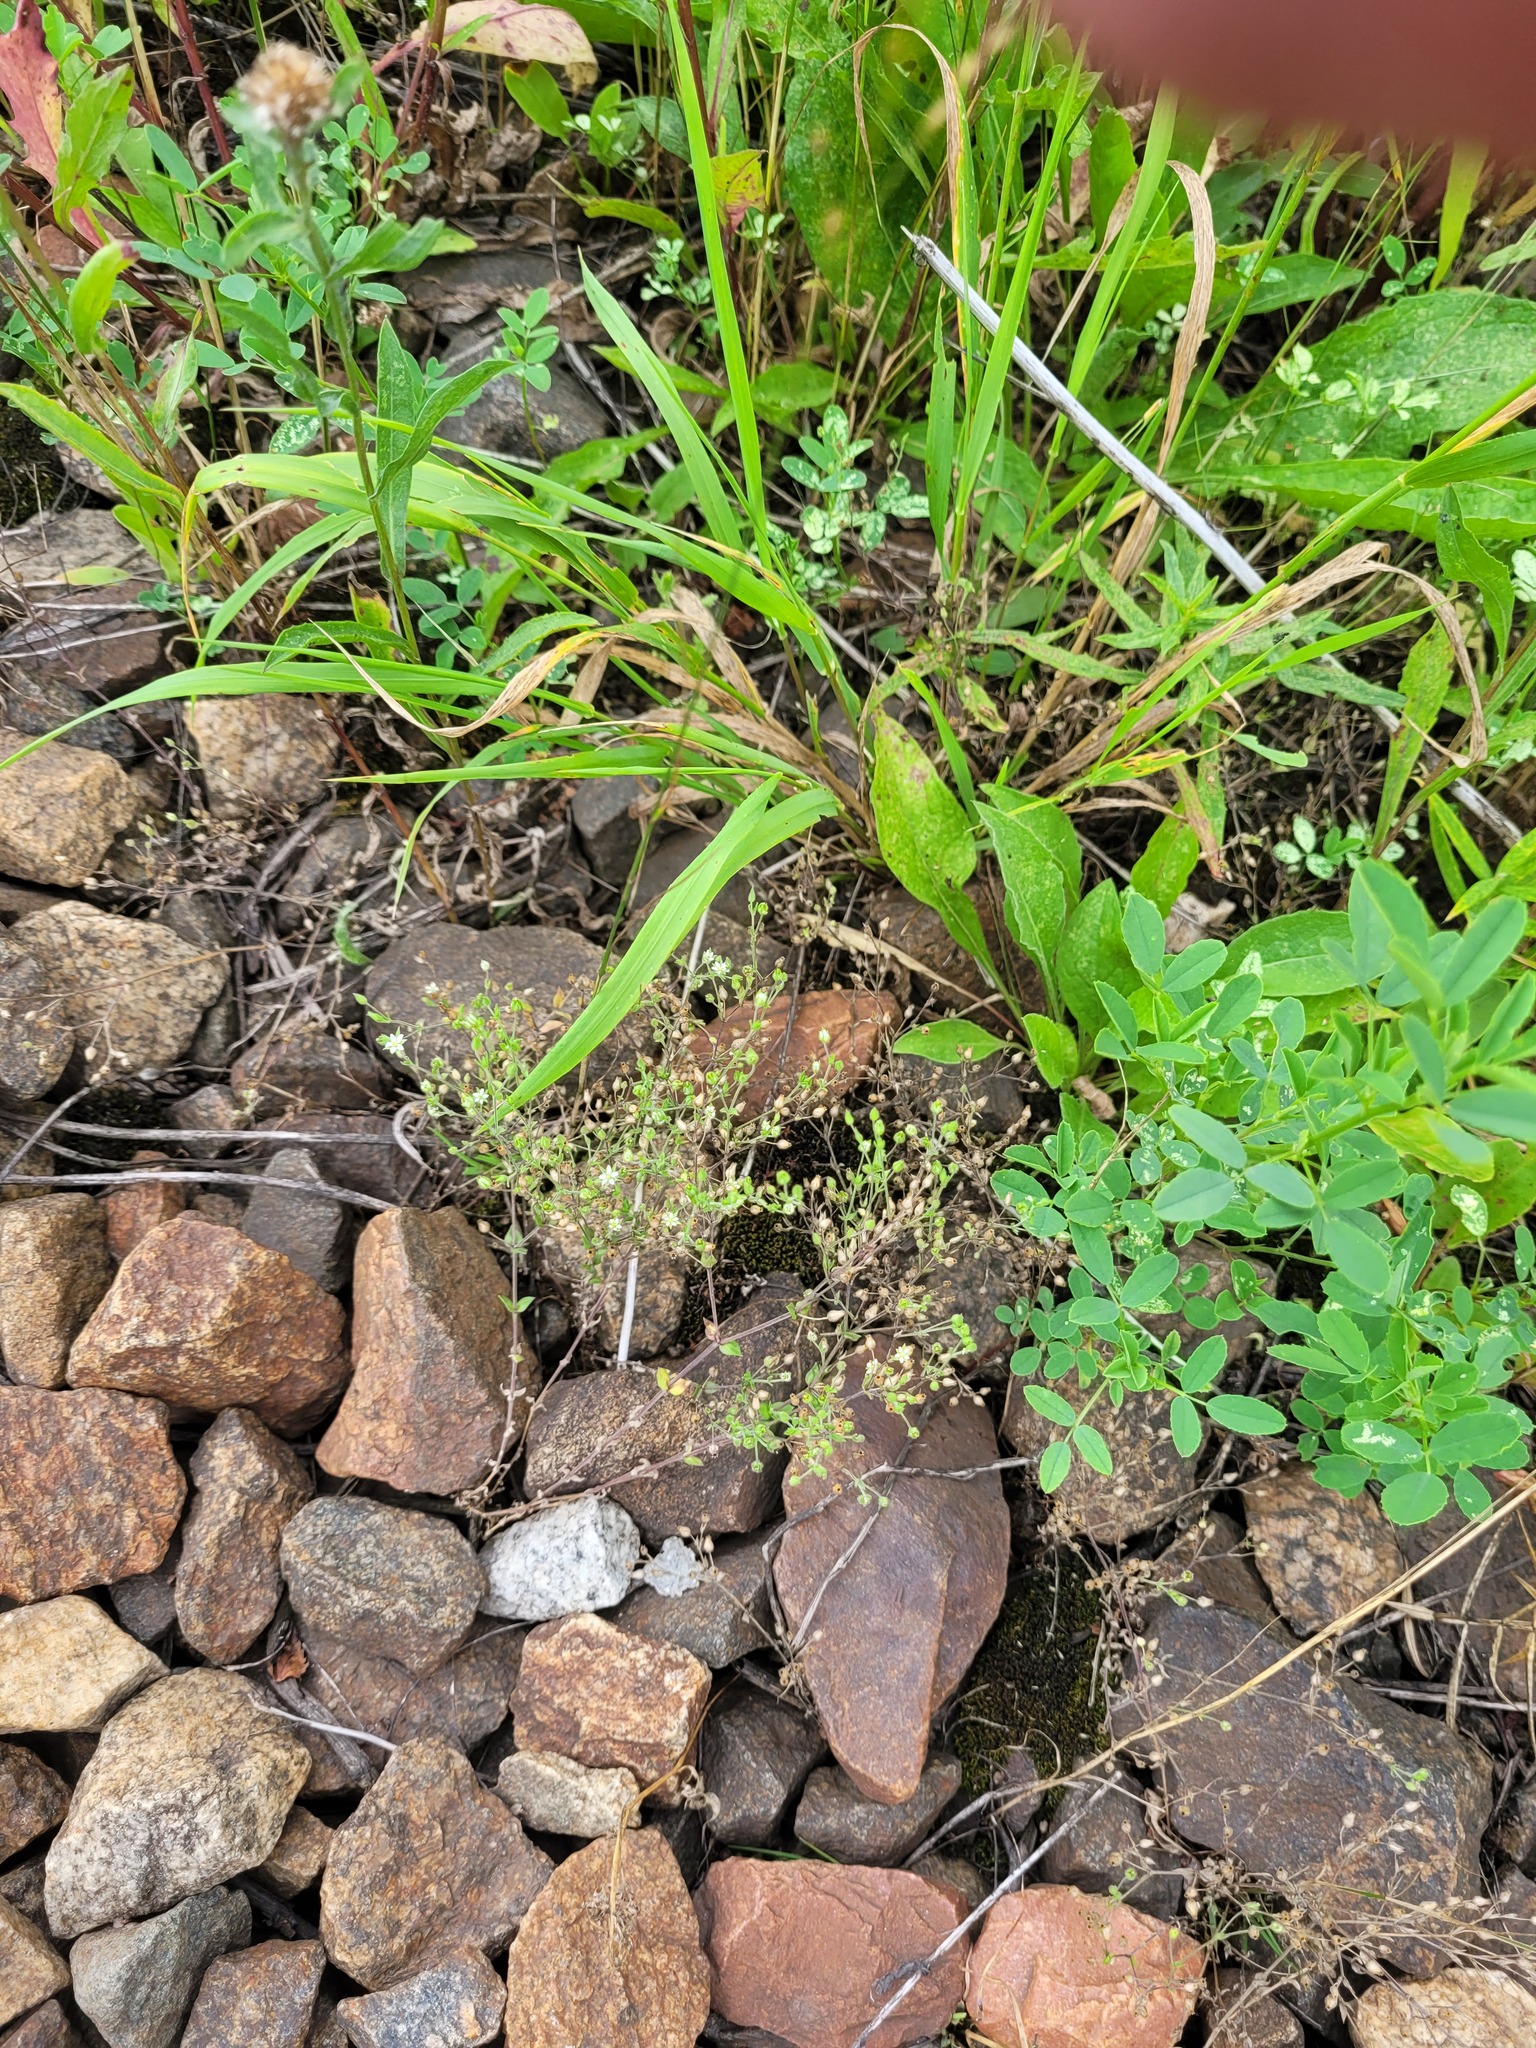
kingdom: Plantae
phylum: Tracheophyta
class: Magnoliopsida
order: Caryophyllales
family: Caryophyllaceae
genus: Arenaria
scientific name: Arenaria serpyllifolia
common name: Thyme-leaved sandwort
